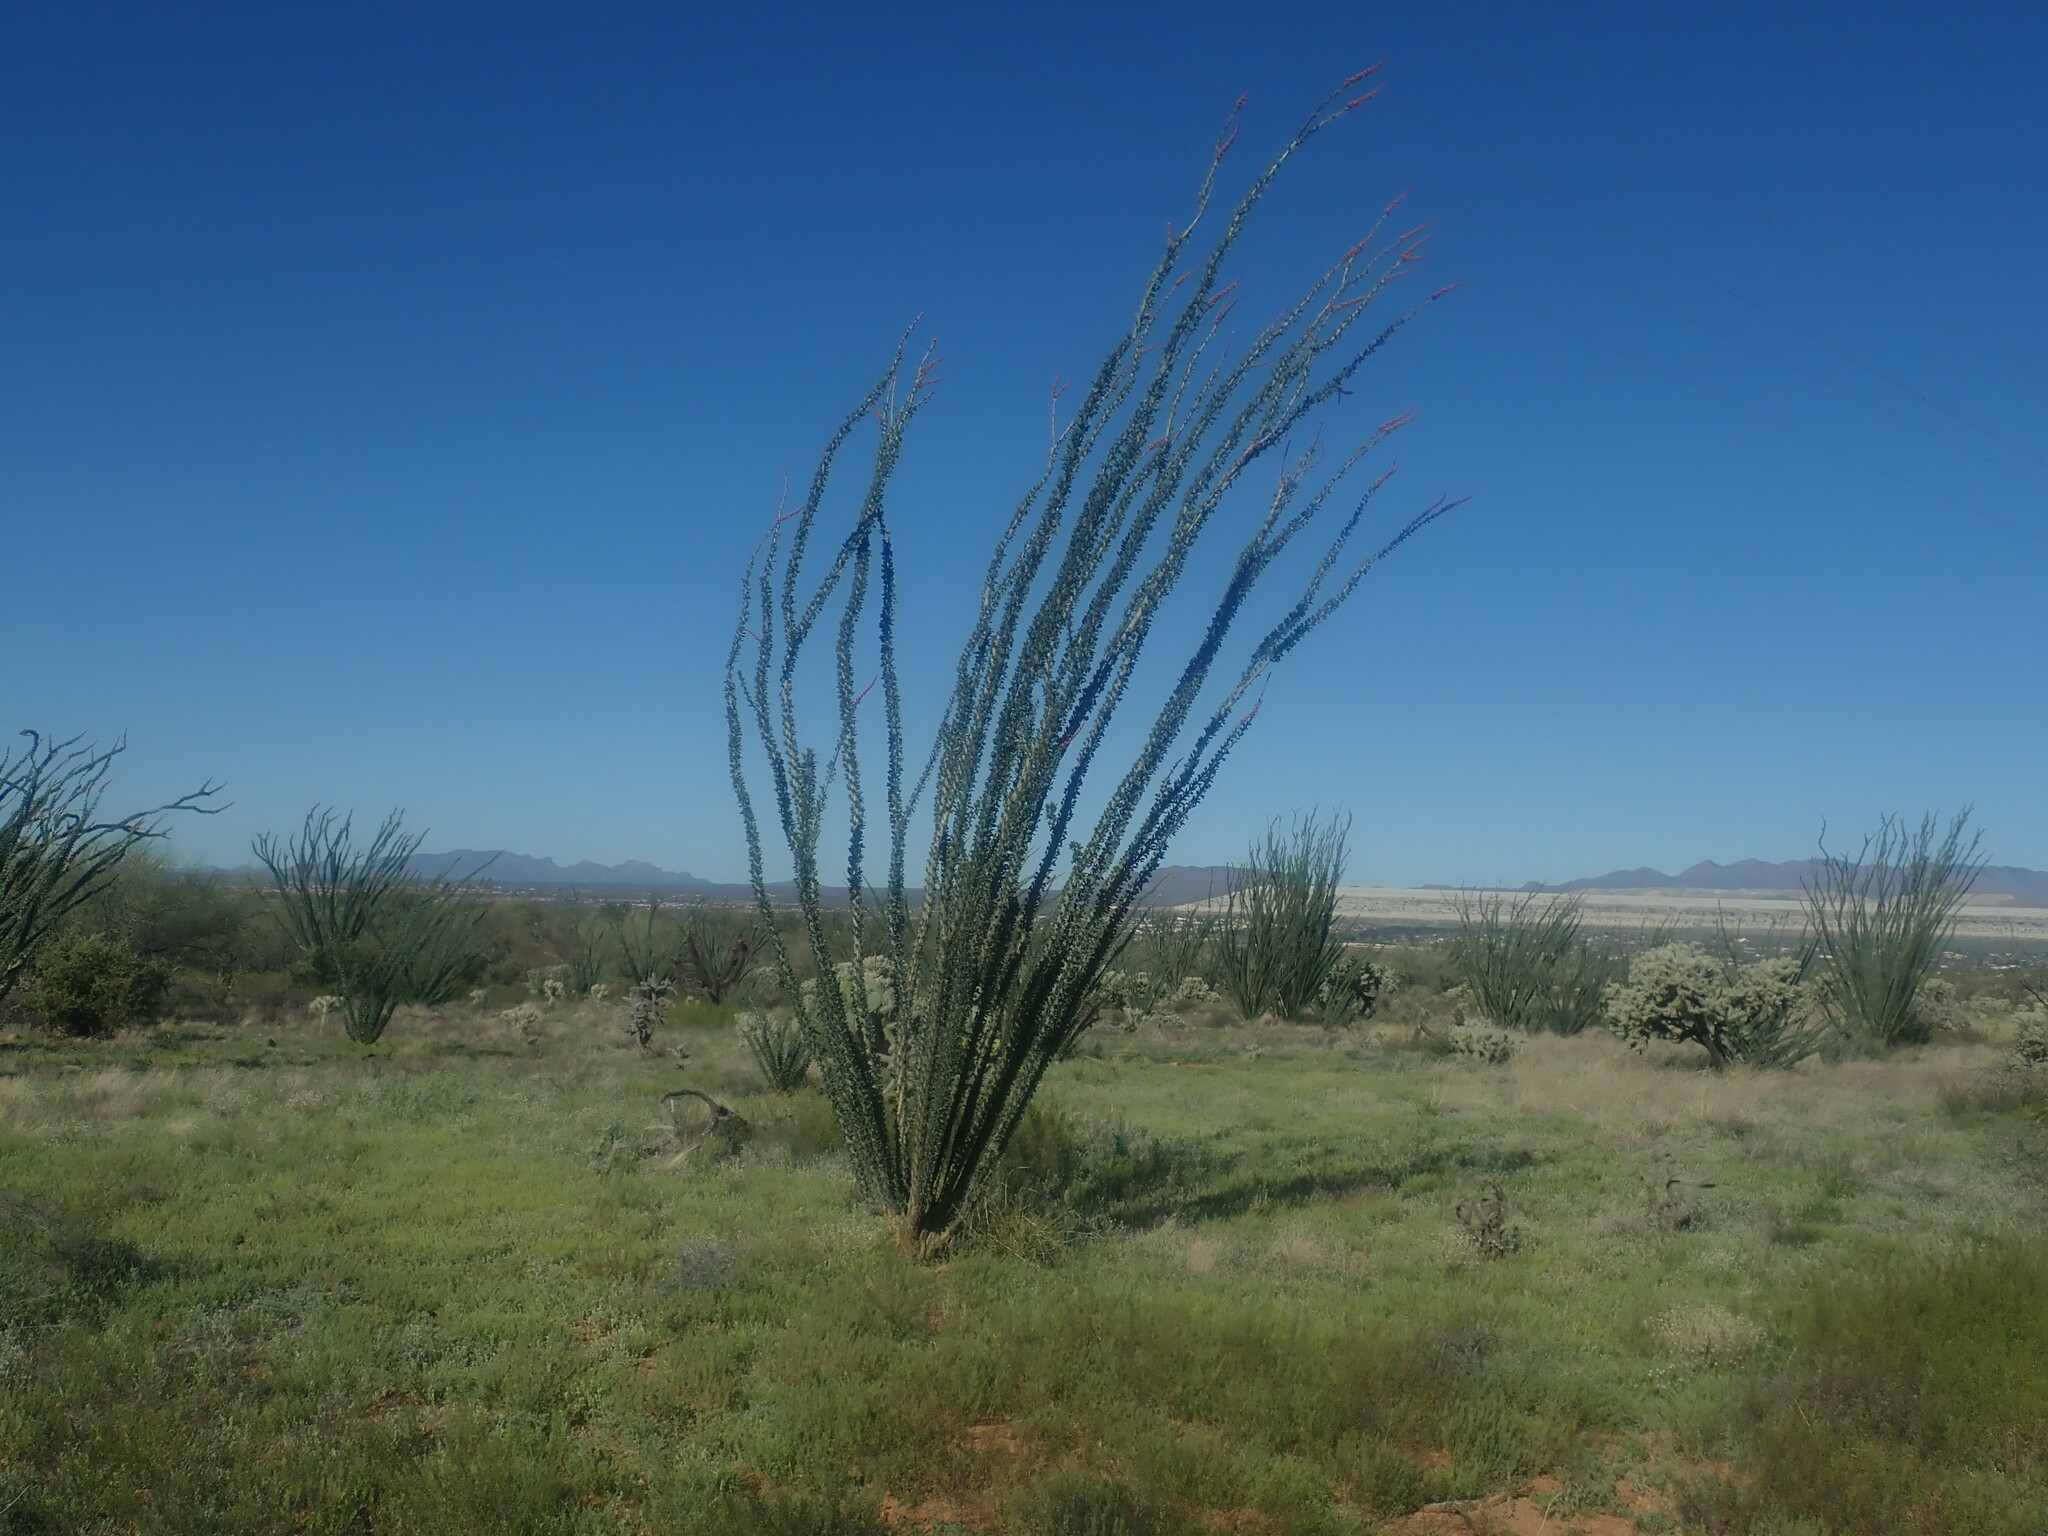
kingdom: Plantae
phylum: Tracheophyta
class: Magnoliopsida
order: Ericales
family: Fouquieriaceae
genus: Fouquieria
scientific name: Fouquieria splendens
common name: Vine-cactus
